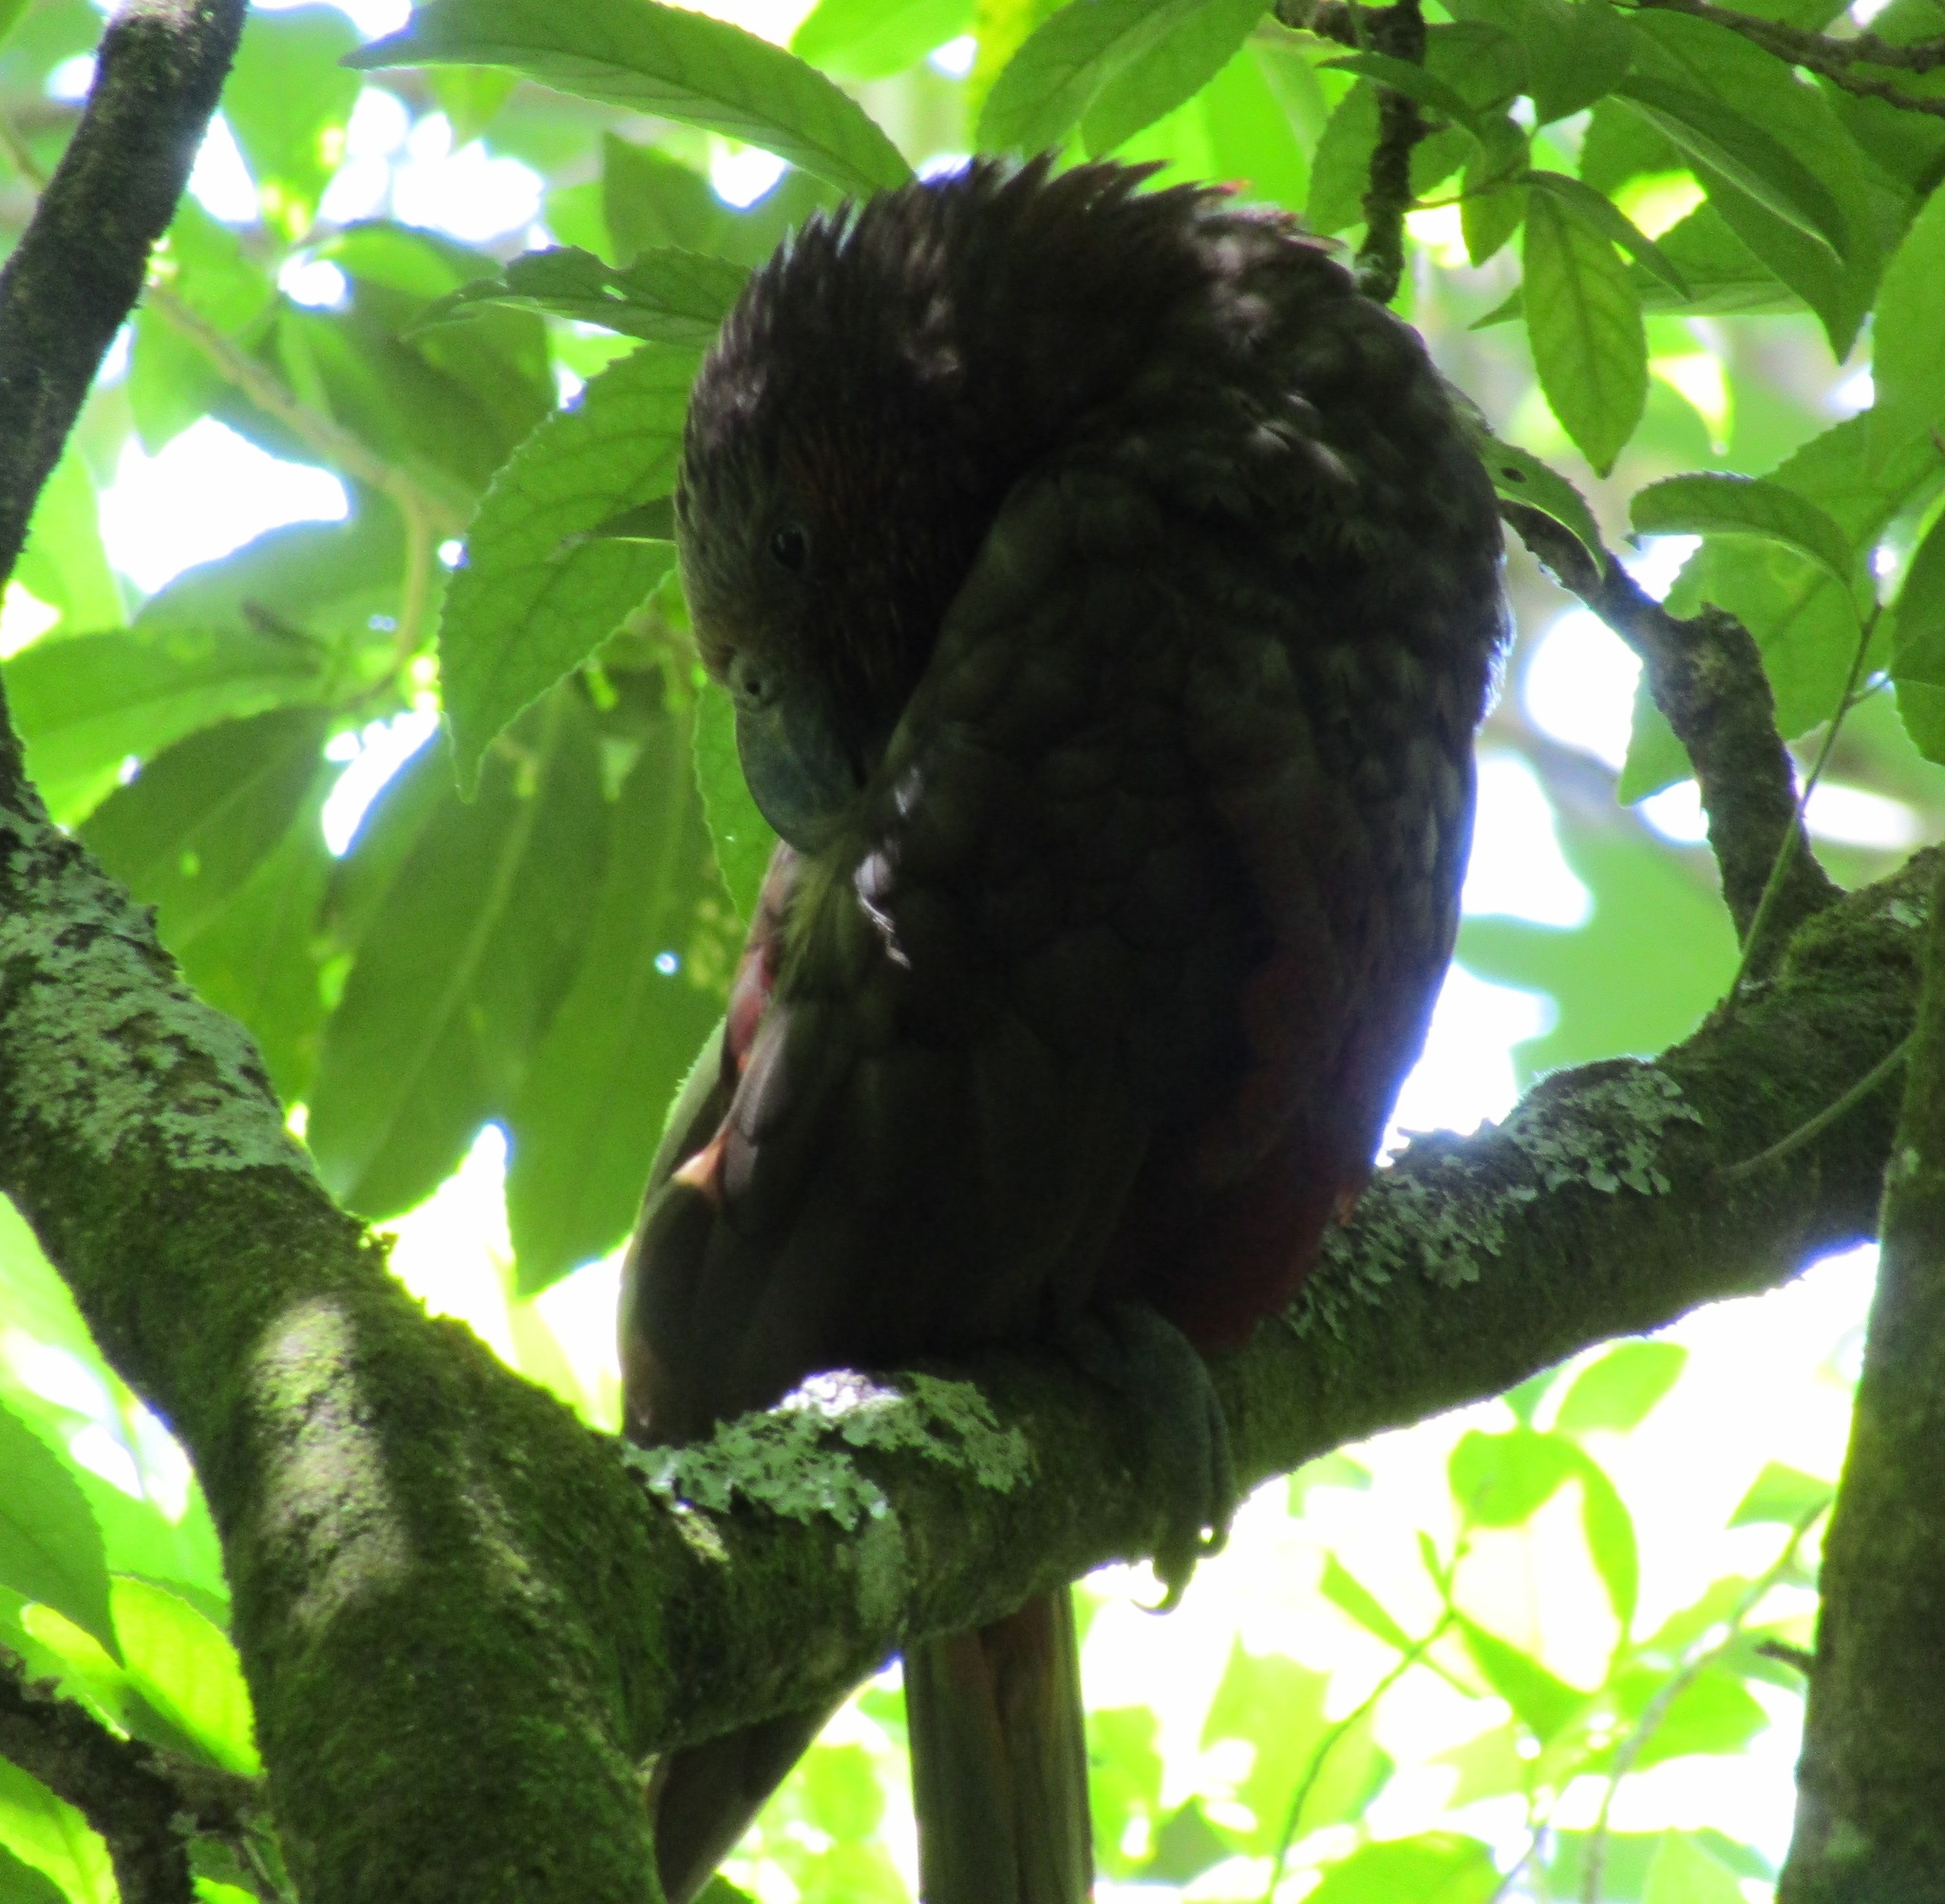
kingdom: Animalia
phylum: Chordata
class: Aves
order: Psittaciformes
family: Psittacidae
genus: Nestor
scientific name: Nestor meridionalis
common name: New zealand kaka
